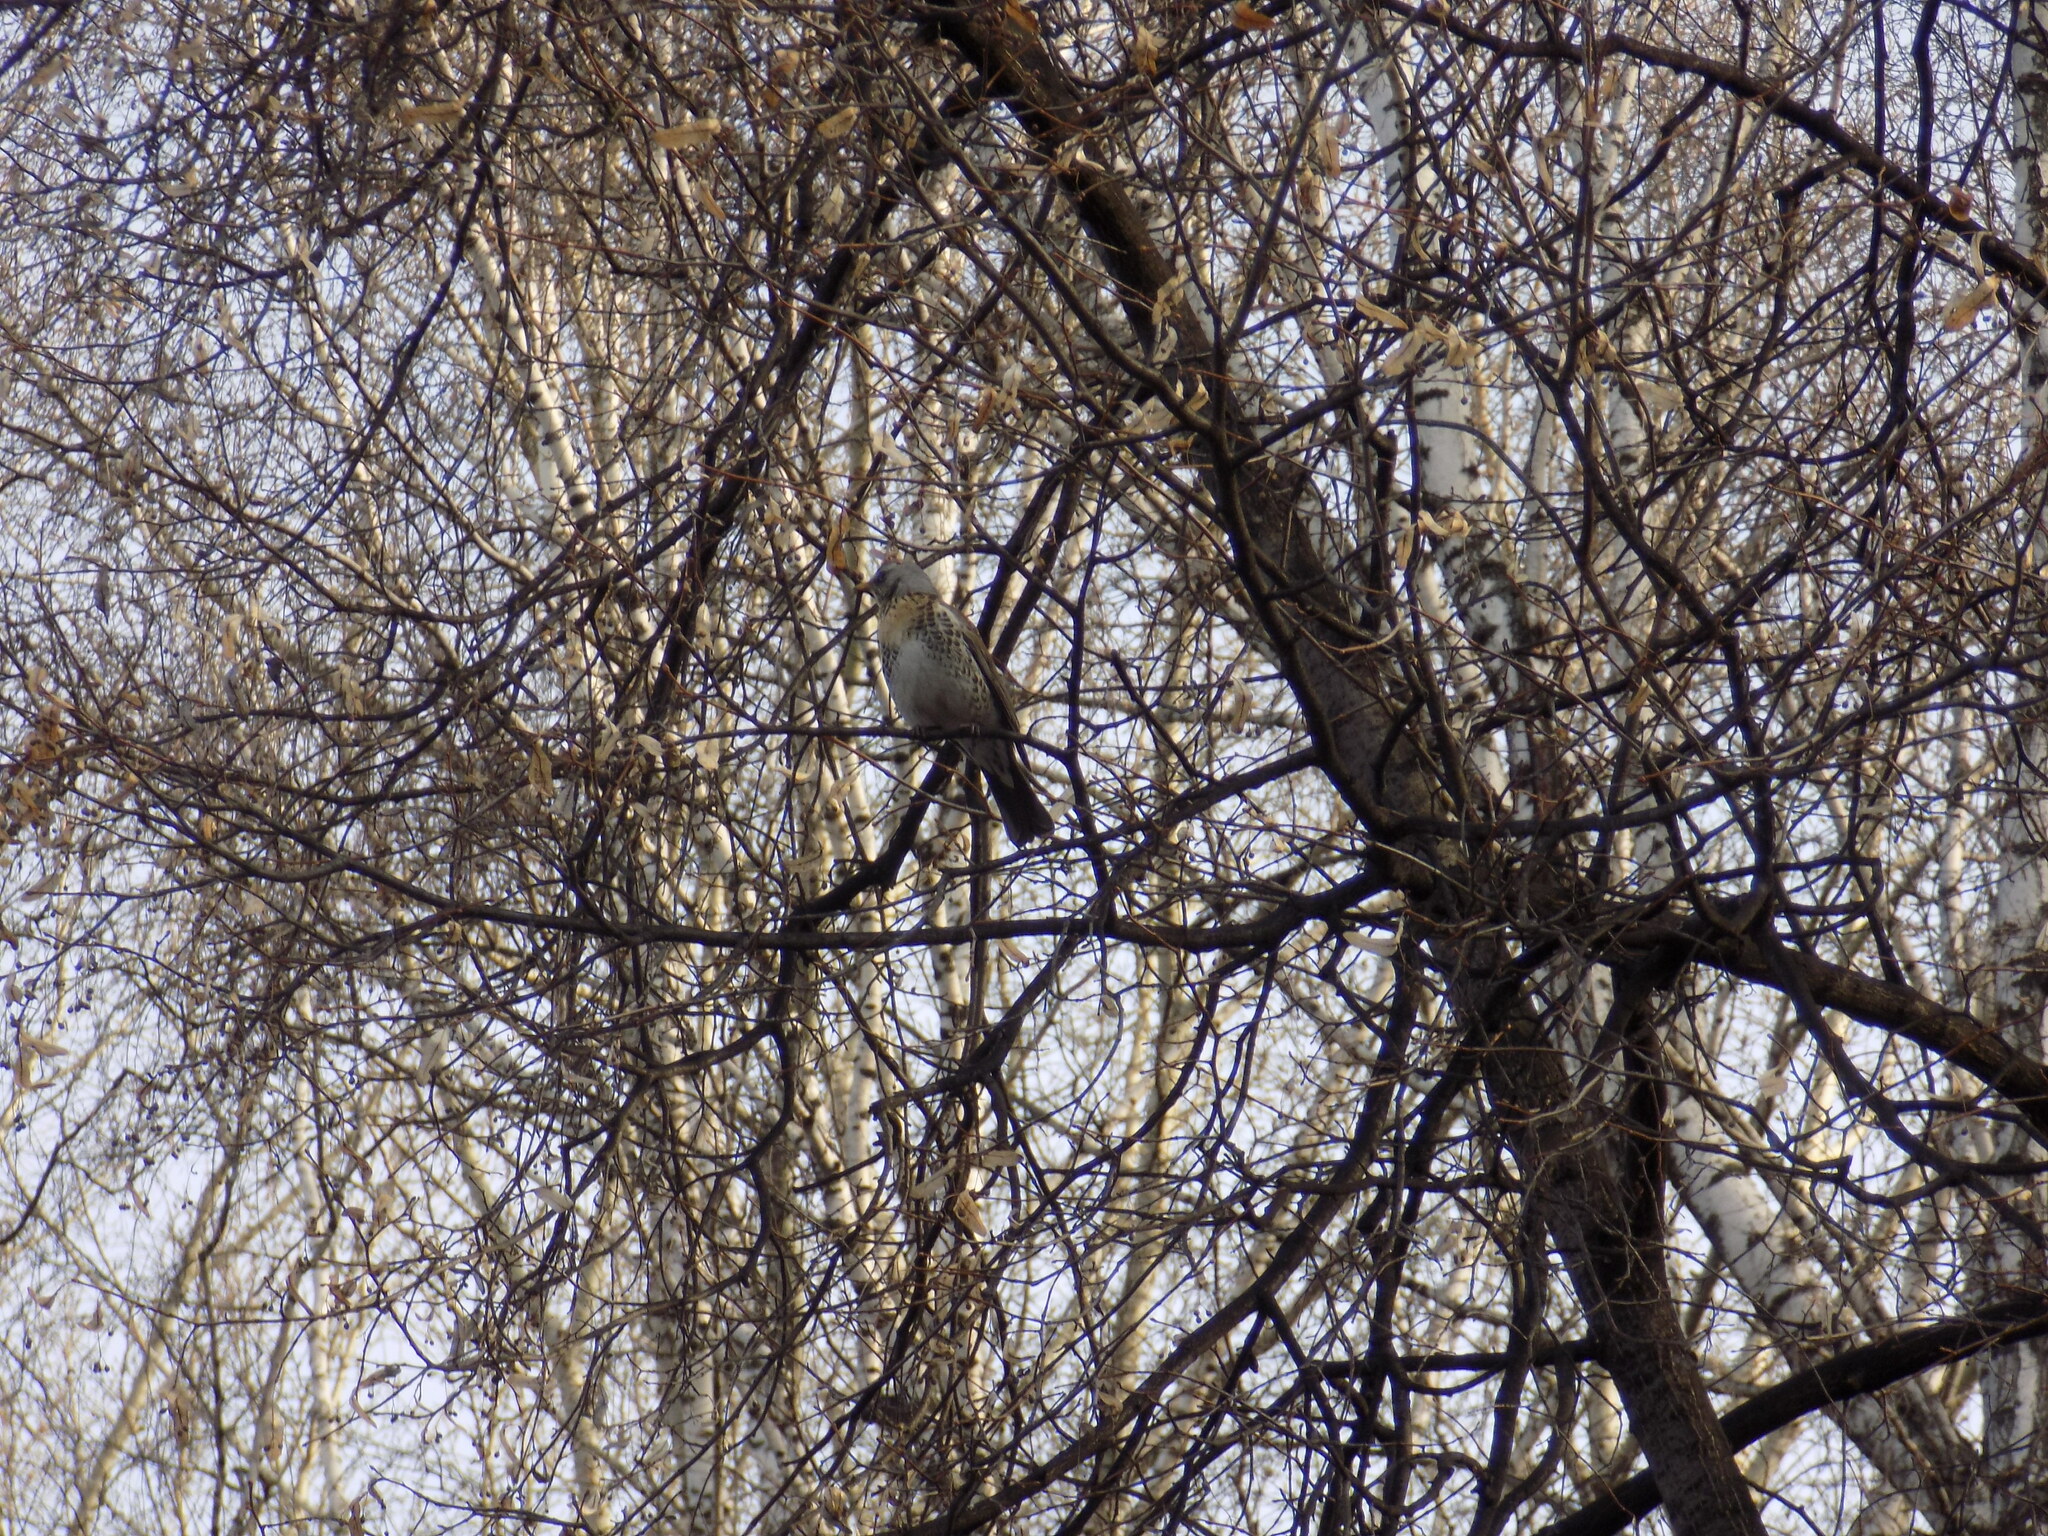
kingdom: Animalia
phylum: Chordata
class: Aves
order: Passeriformes
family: Turdidae
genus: Turdus
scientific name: Turdus pilaris
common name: Fieldfare
